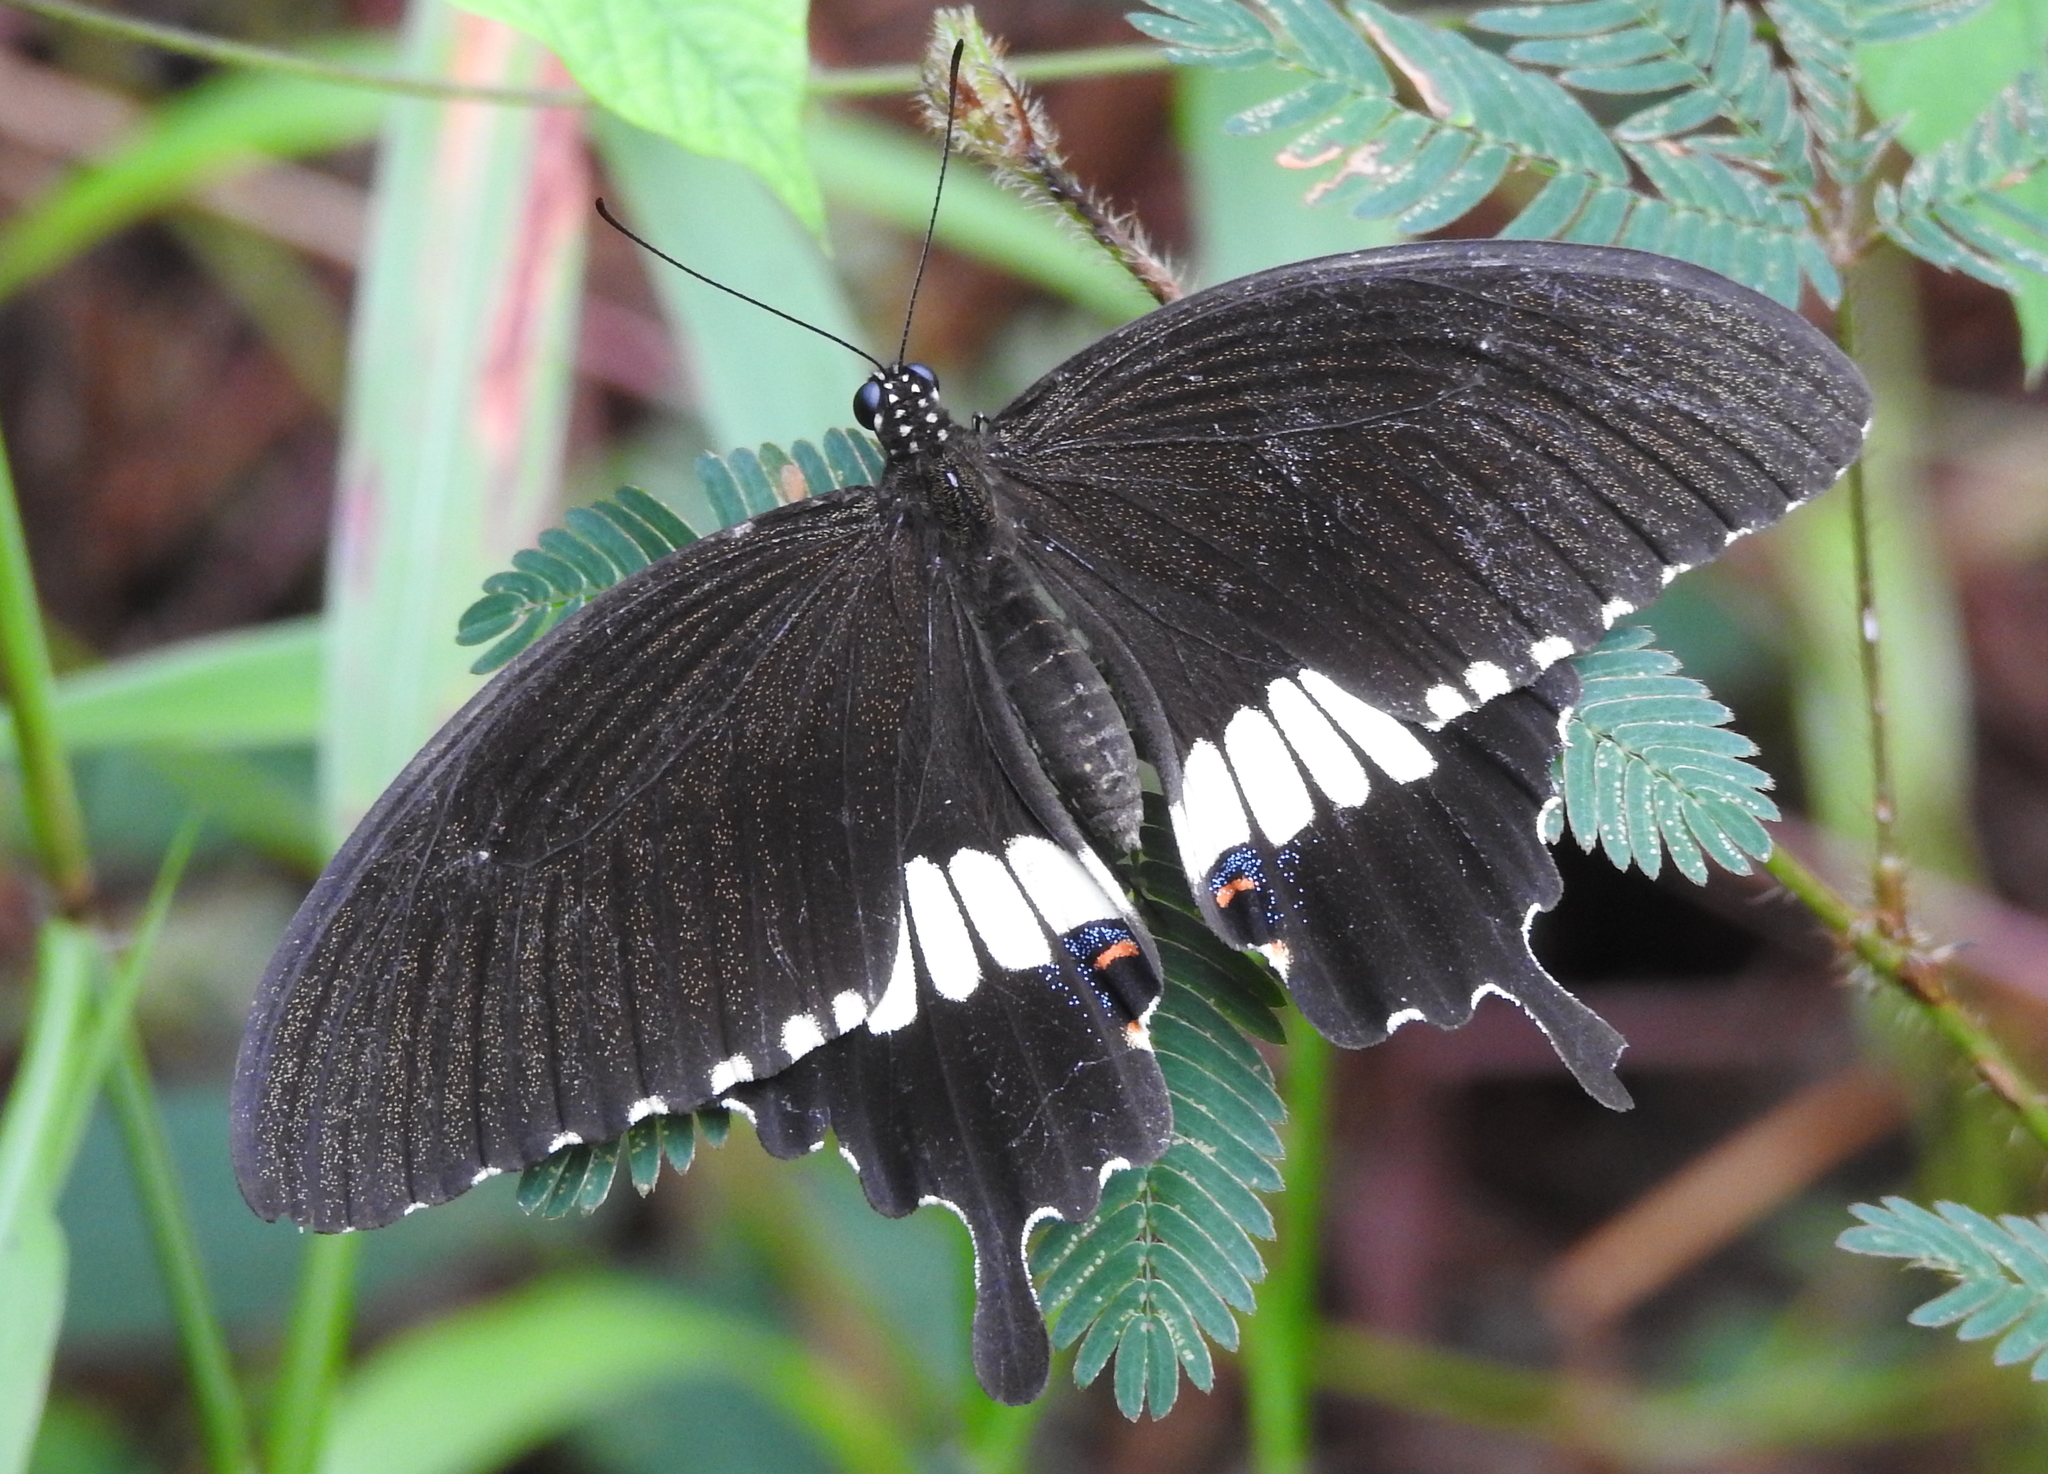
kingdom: Animalia
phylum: Arthropoda
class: Insecta
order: Lepidoptera
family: Papilionidae
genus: Papilio
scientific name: Papilio polytes
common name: Common mormon
